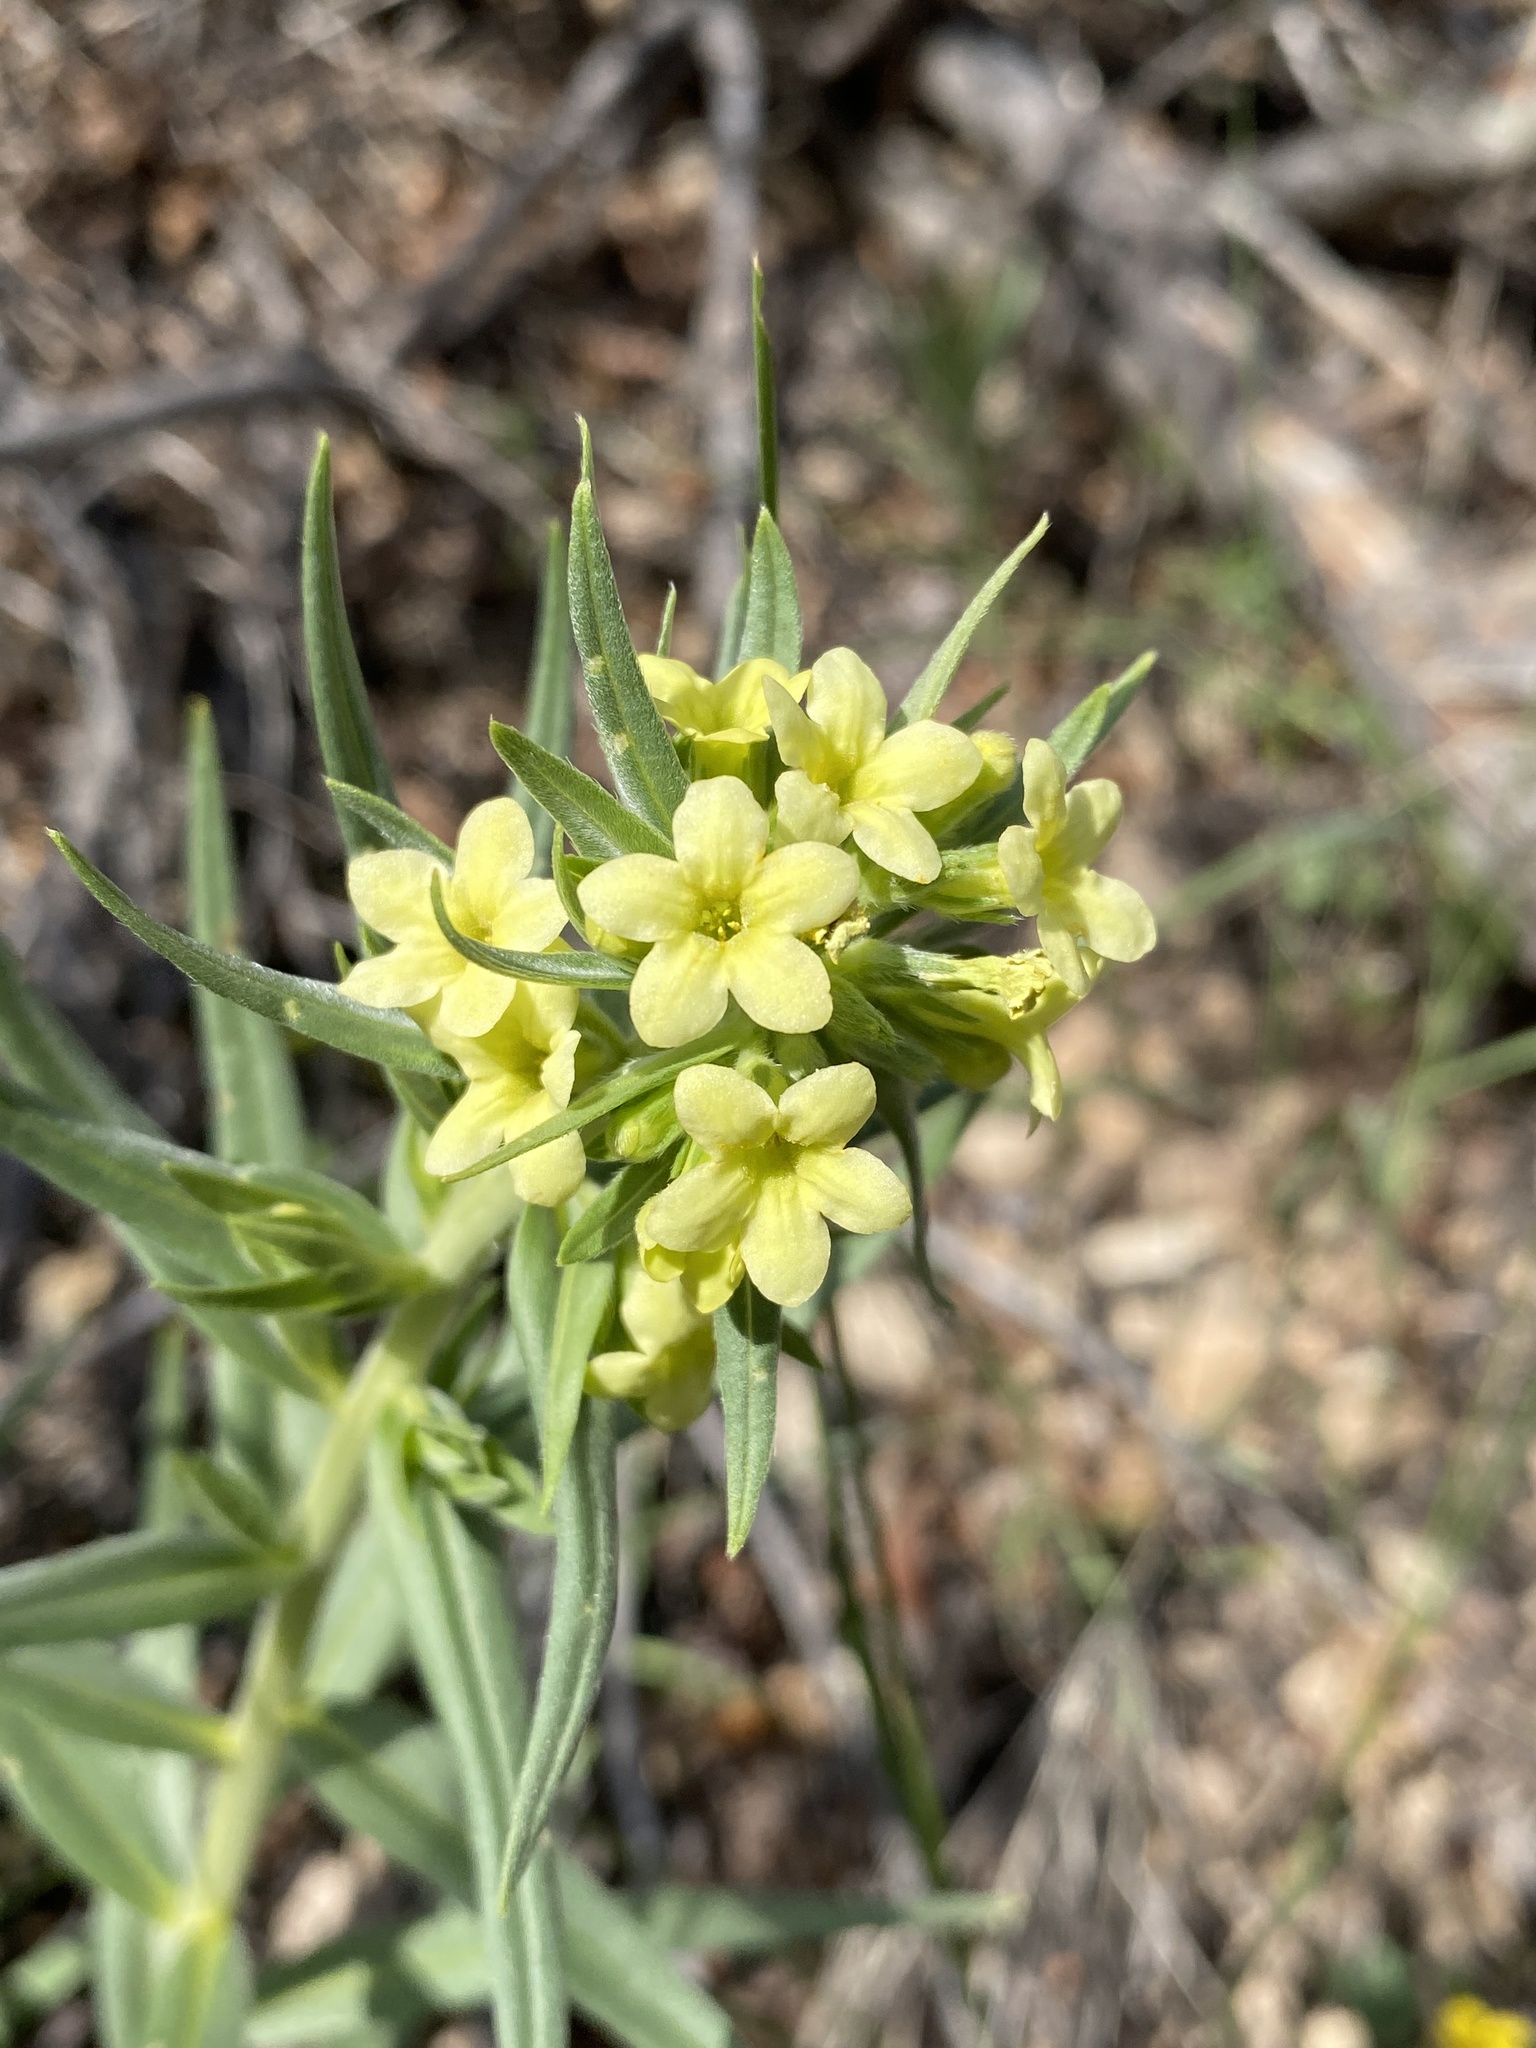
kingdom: Plantae
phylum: Tracheophyta
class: Magnoliopsida
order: Boraginales
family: Boraginaceae
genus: Lithospermum
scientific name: Lithospermum ruderale
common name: Western gromwell
